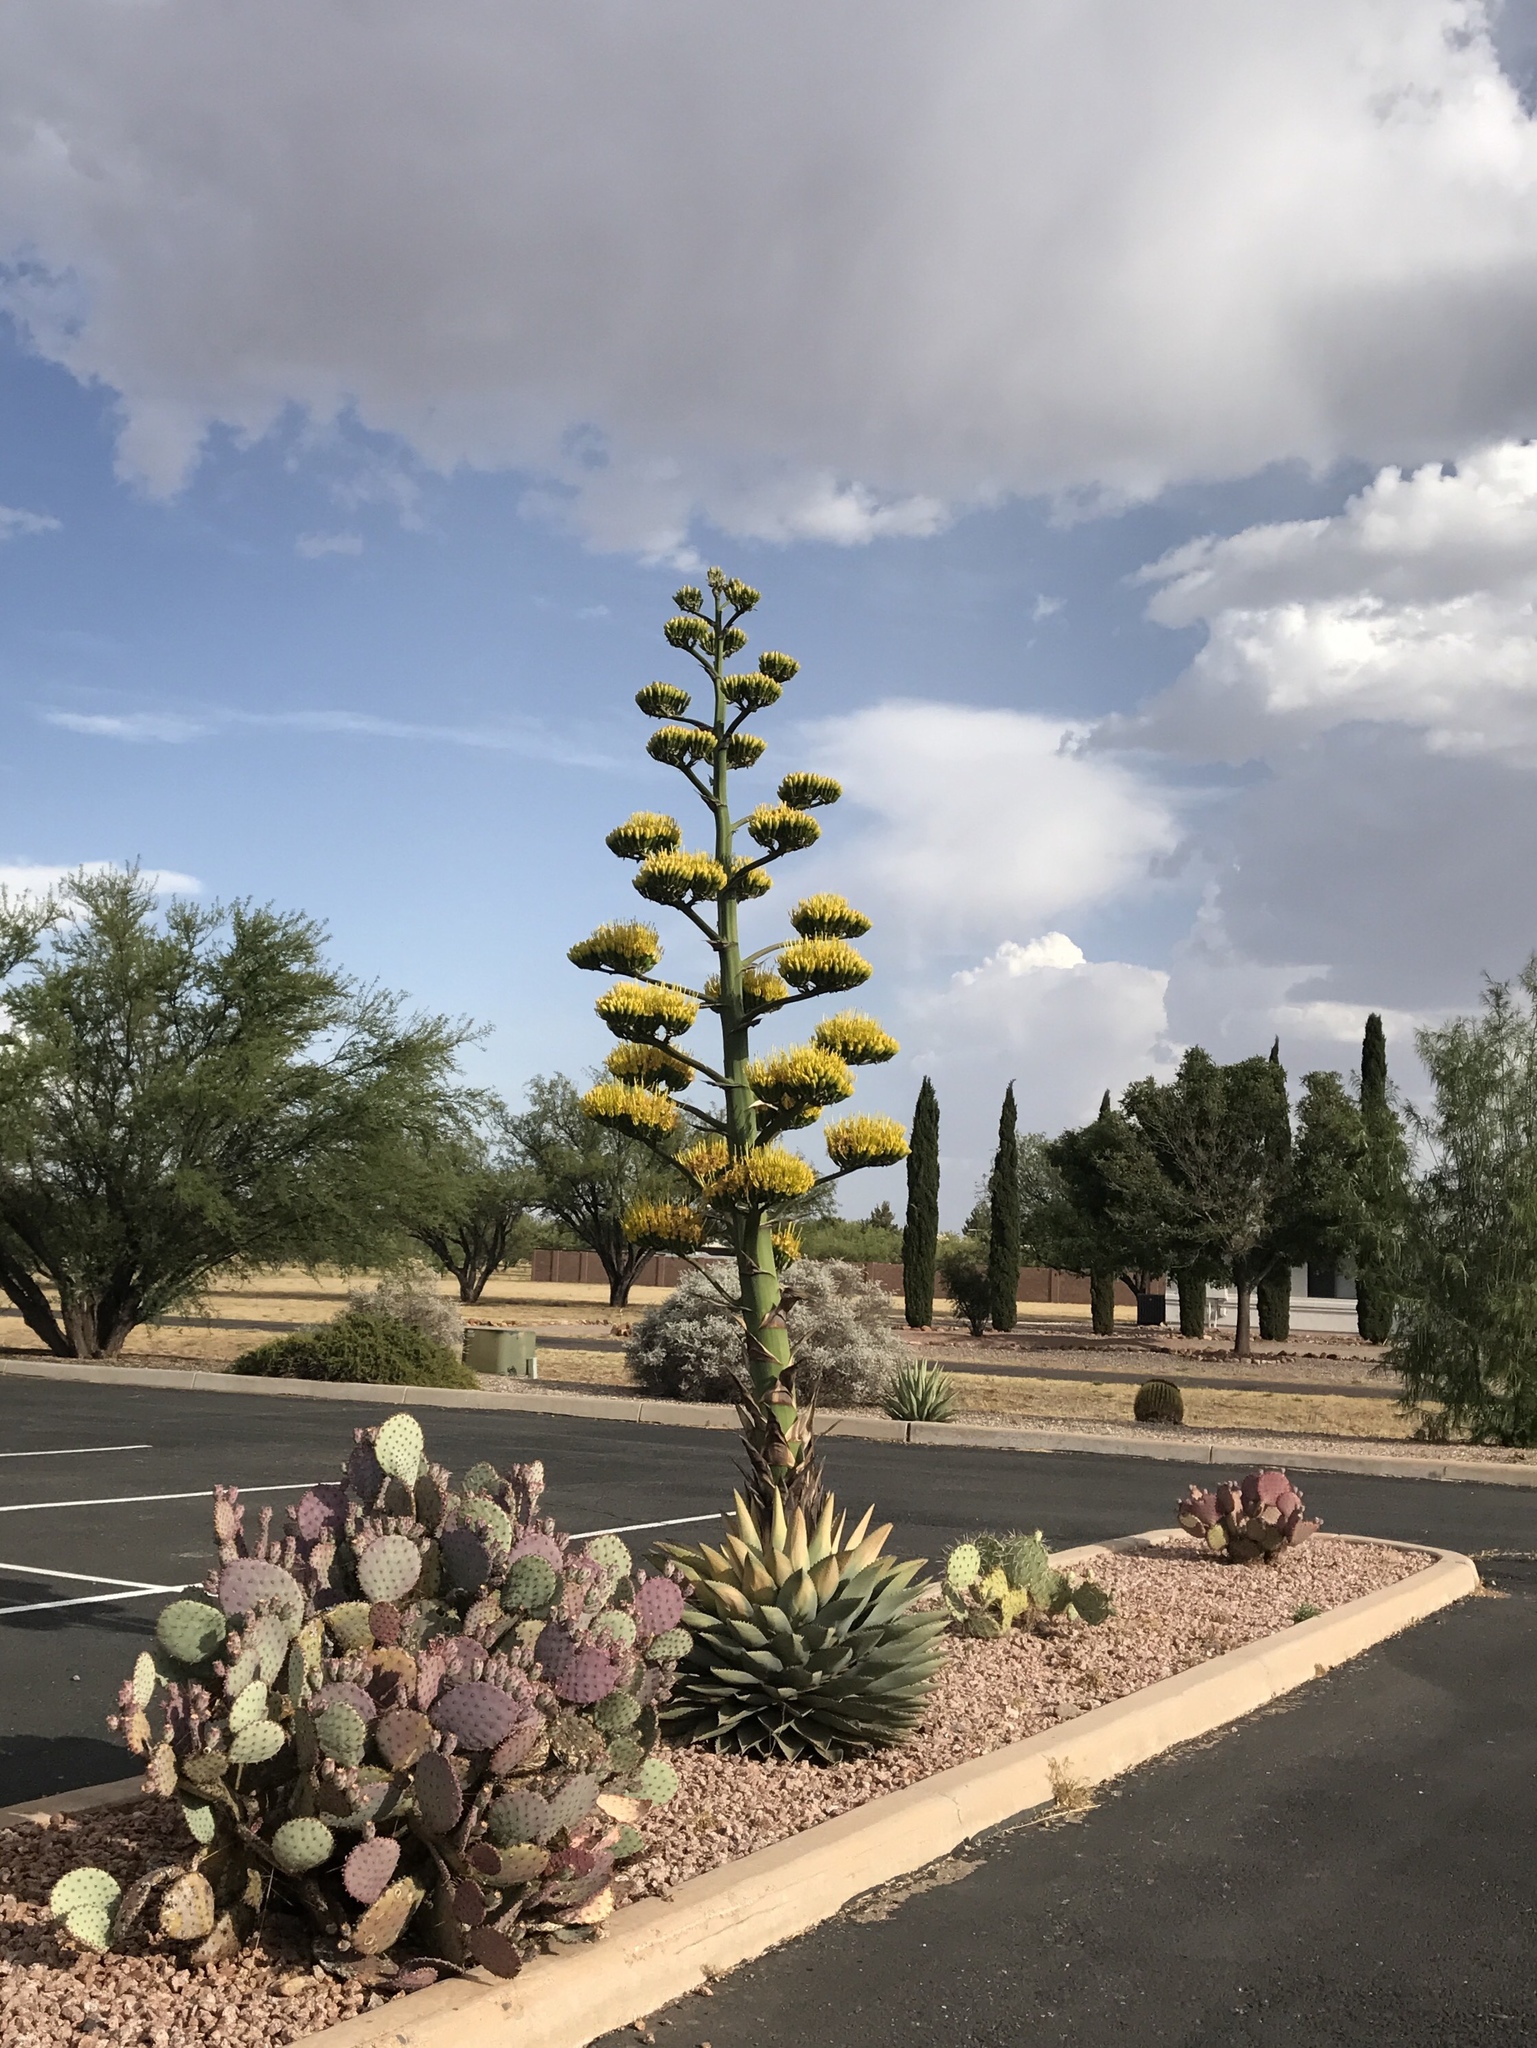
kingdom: Plantae
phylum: Tracheophyta
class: Liliopsida
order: Asparagales
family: Asparagaceae
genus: Agave
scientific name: Agave parryi
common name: Parry's agave
